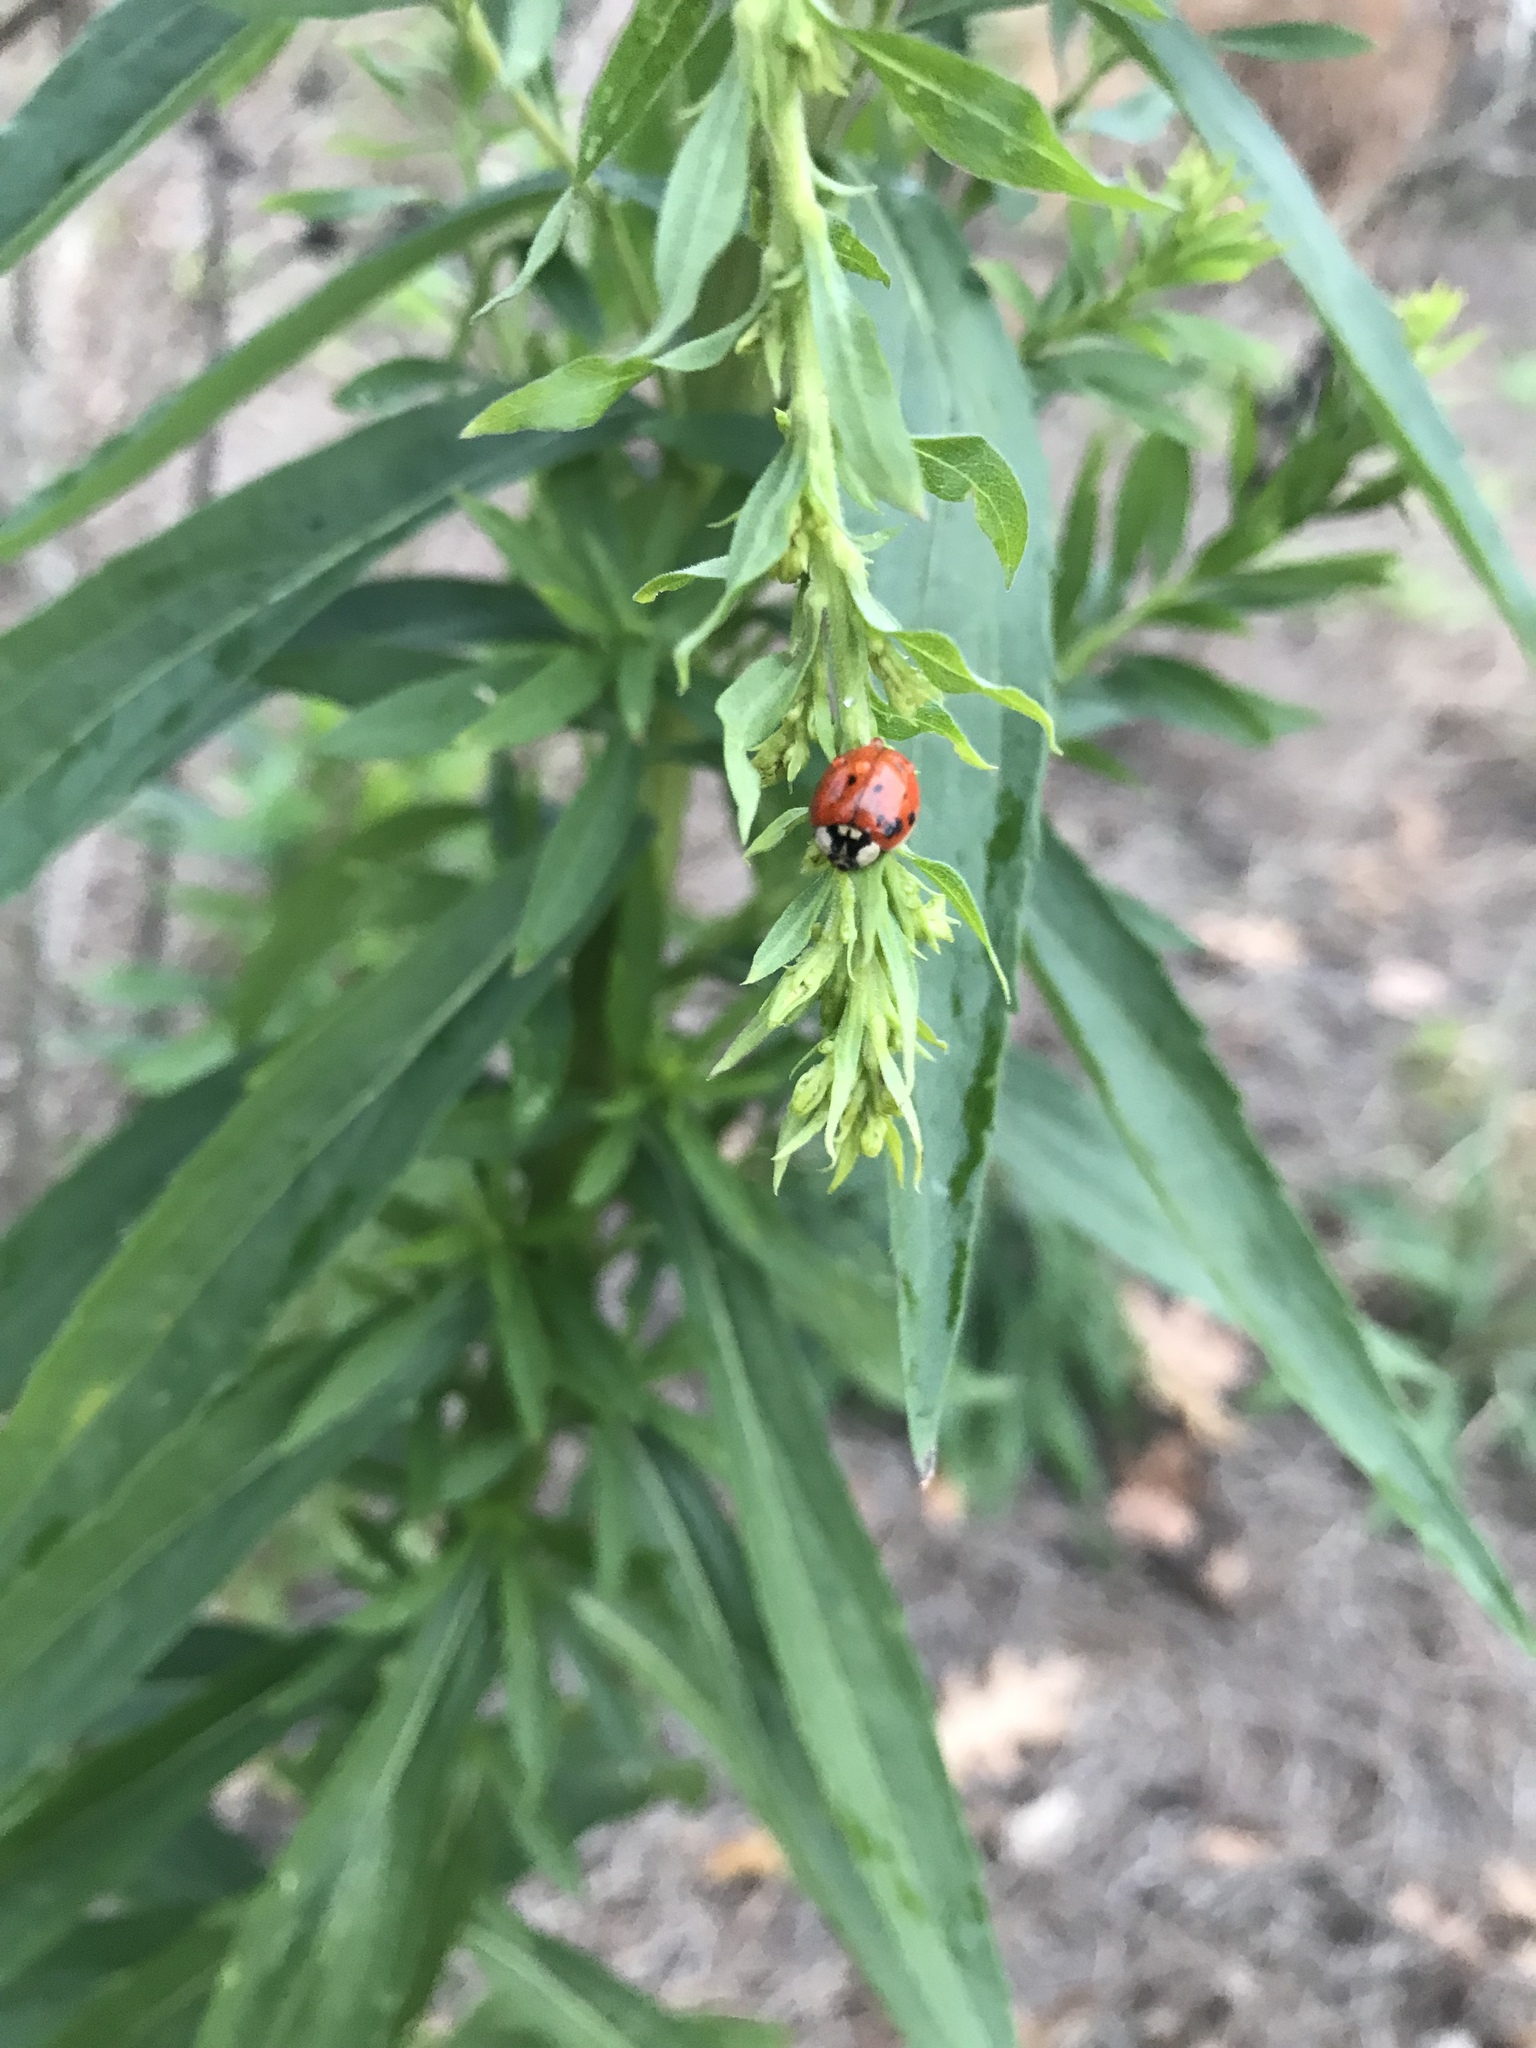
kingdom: Animalia
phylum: Arthropoda
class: Insecta
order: Coleoptera
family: Coccinellidae
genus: Harmonia
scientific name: Harmonia axyridis
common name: Harlequin ladybird
